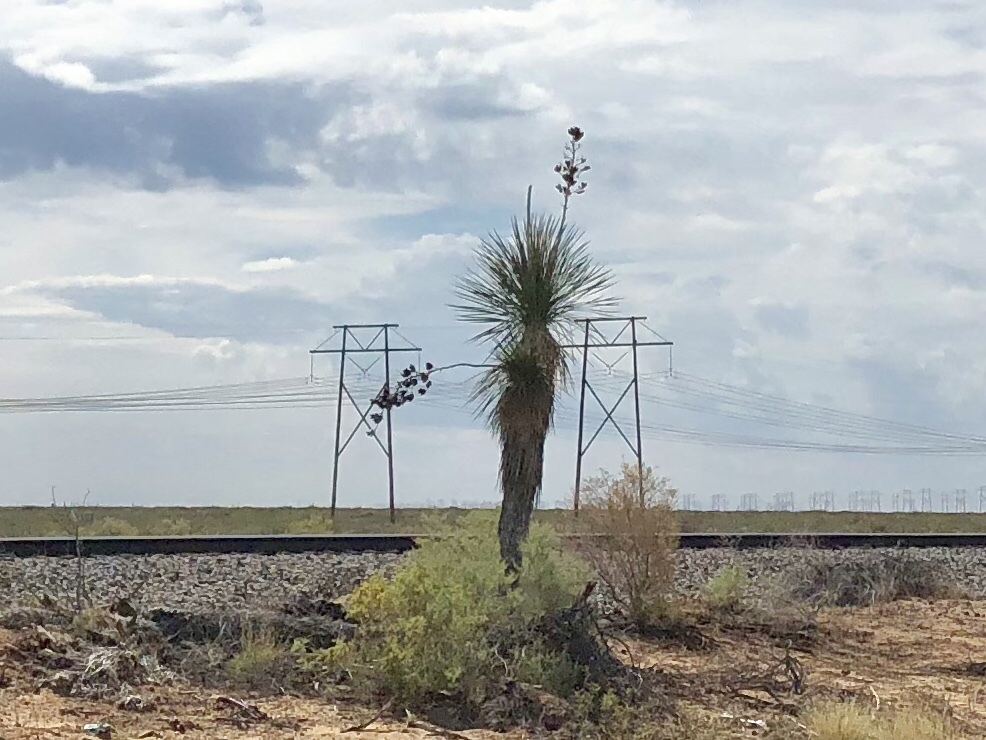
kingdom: Plantae
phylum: Tracheophyta
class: Liliopsida
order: Asparagales
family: Asparagaceae
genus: Yucca
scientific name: Yucca elata
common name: Palmella
